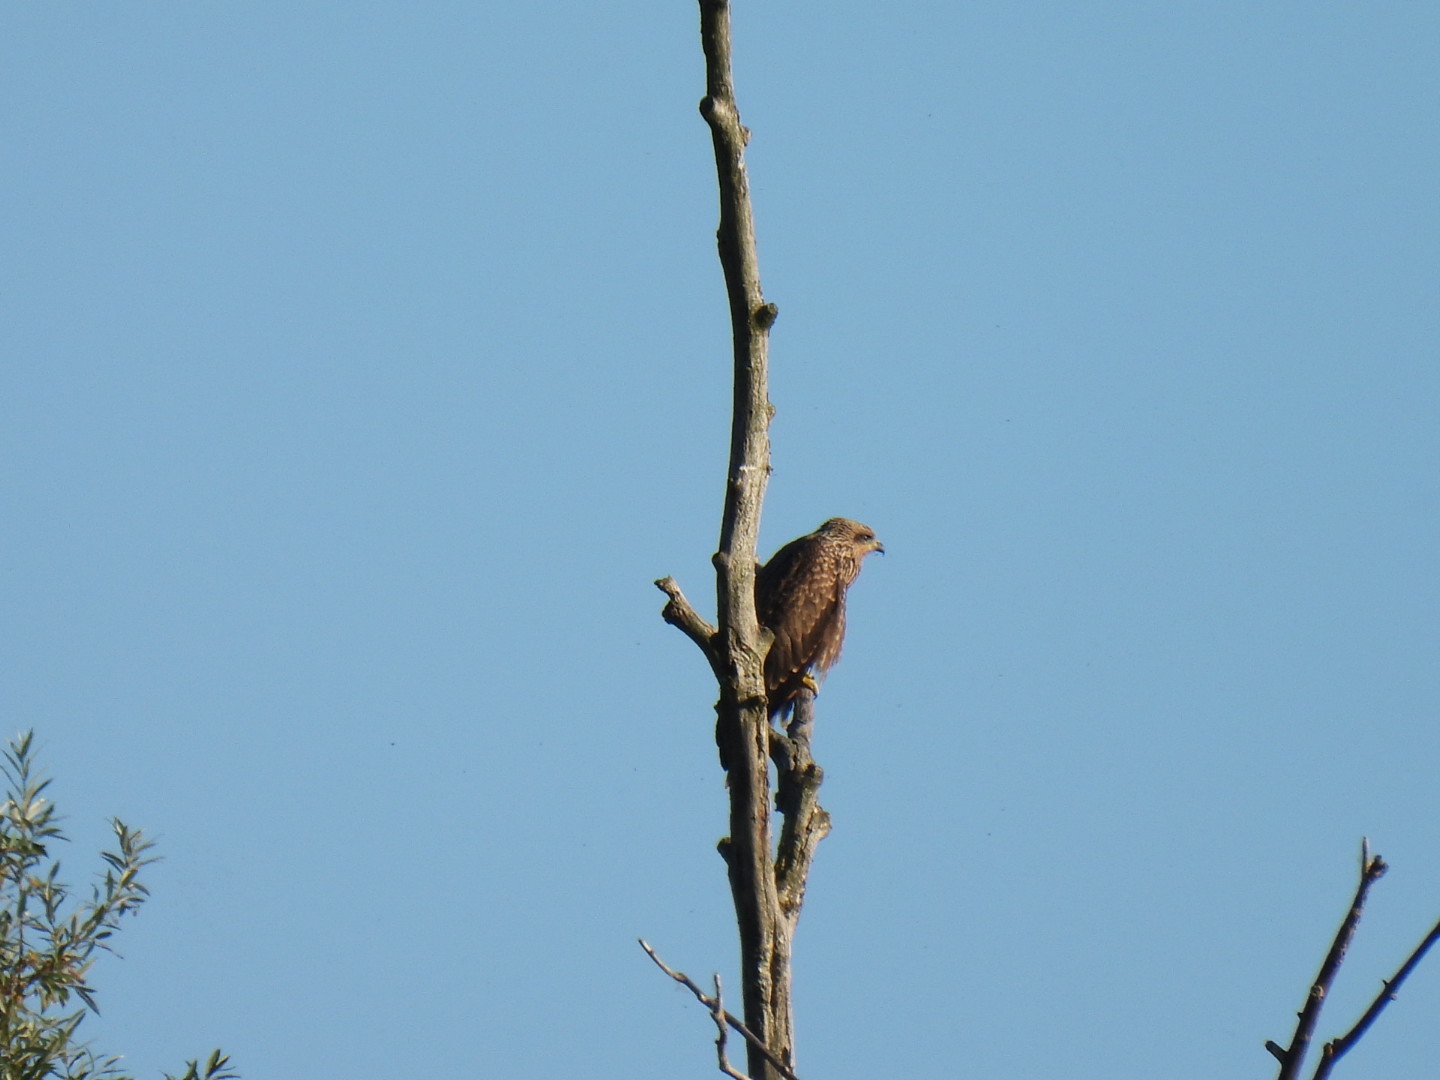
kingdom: Animalia
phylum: Chordata
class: Aves
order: Accipitriformes
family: Accipitridae
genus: Milvus
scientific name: Milvus migrans
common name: Black kite
